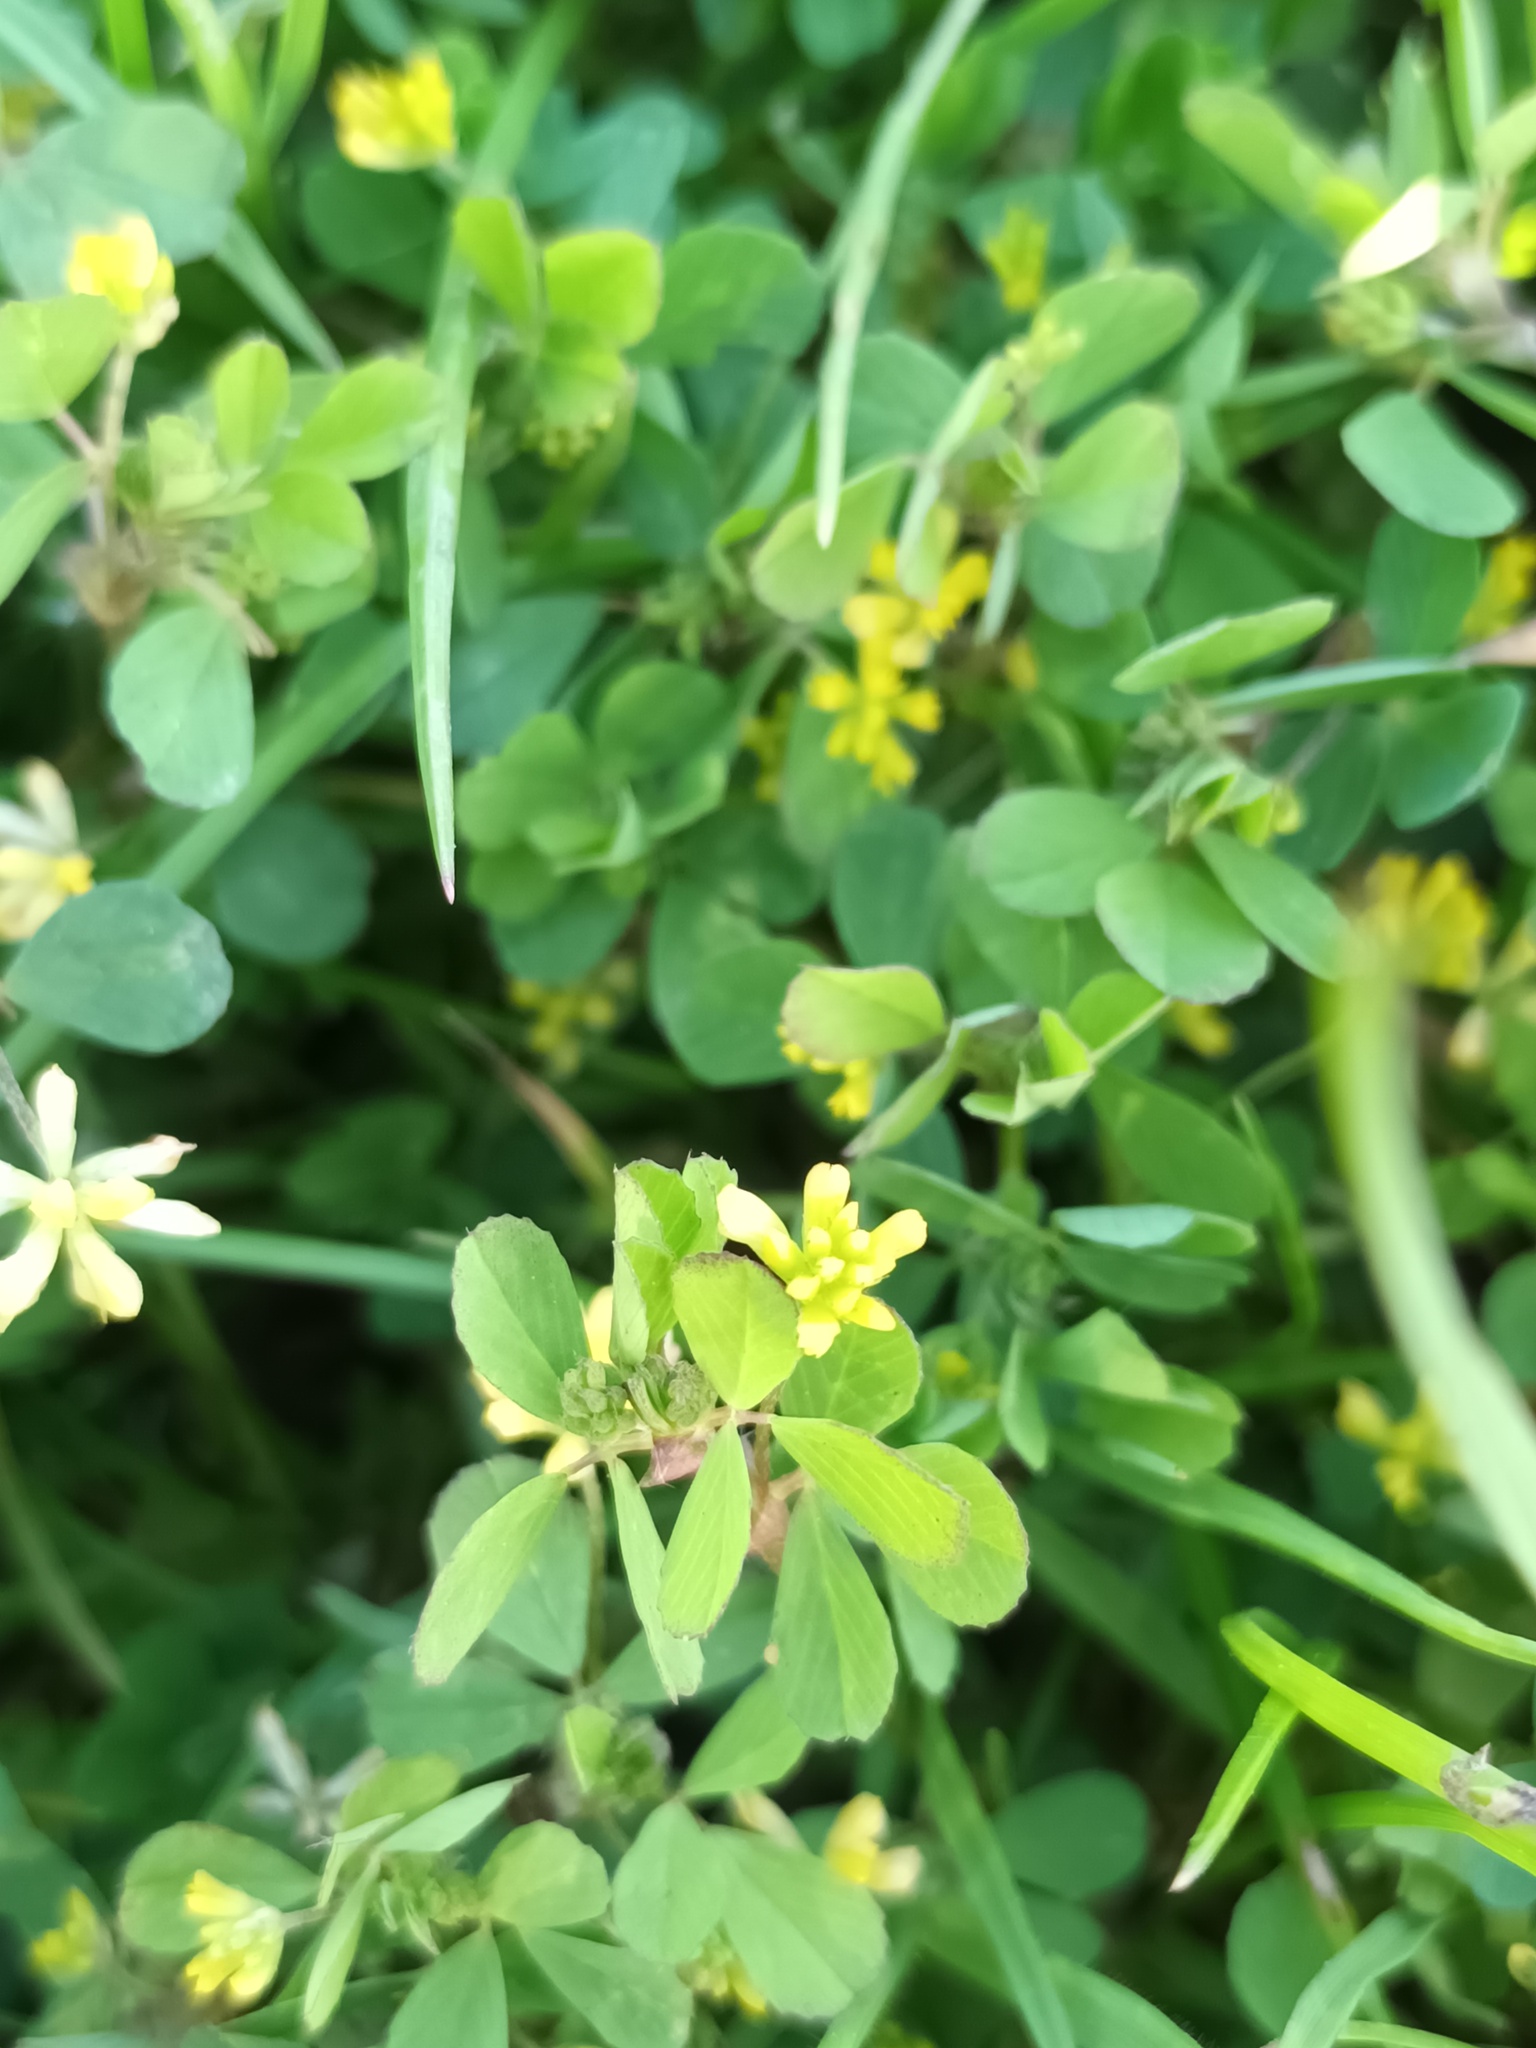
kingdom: Plantae
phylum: Tracheophyta
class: Magnoliopsida
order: Fabales
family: Fabaceae
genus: Trifolium
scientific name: Trifolium dubium
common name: Suckling clover
